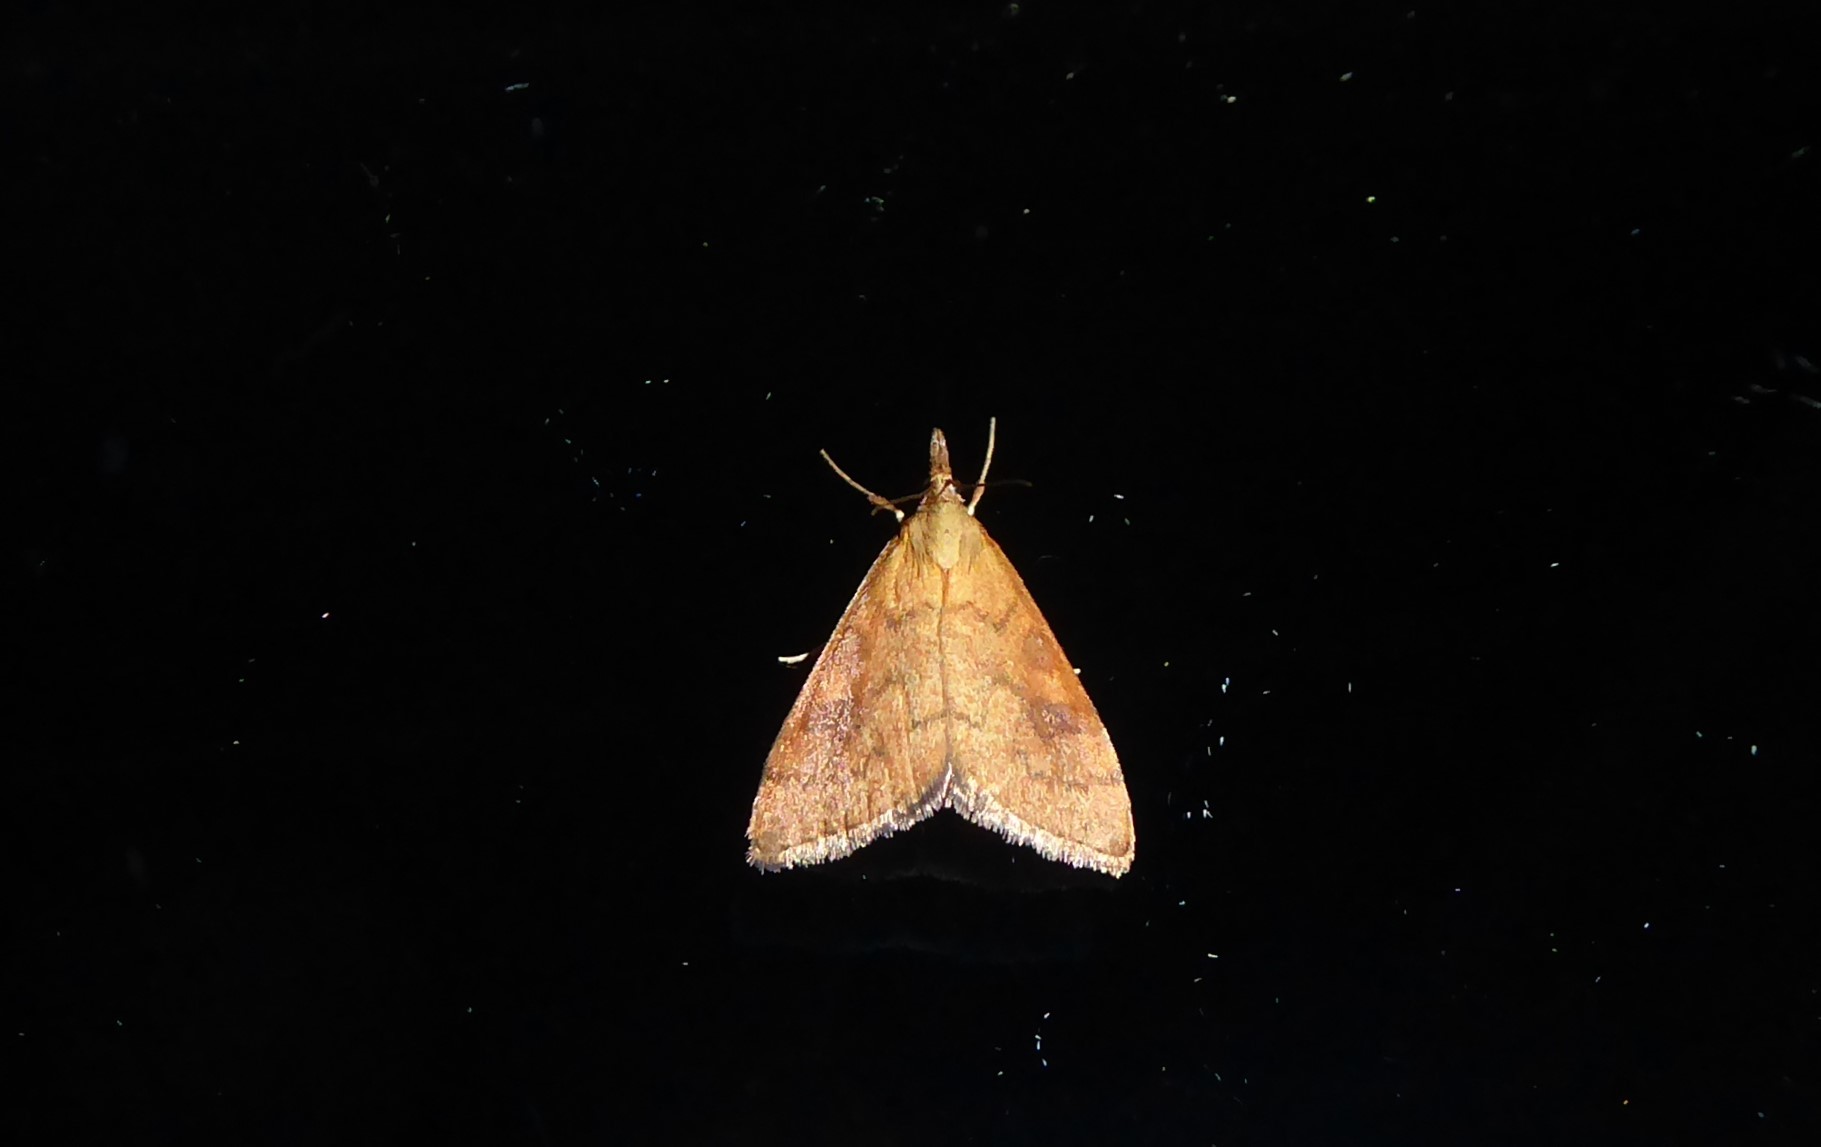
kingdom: Animalia
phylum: Arthropoda
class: Insecta
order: Lepidoptera
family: Crambidae
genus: Udea
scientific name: Udea Mnesictena flavidalis
